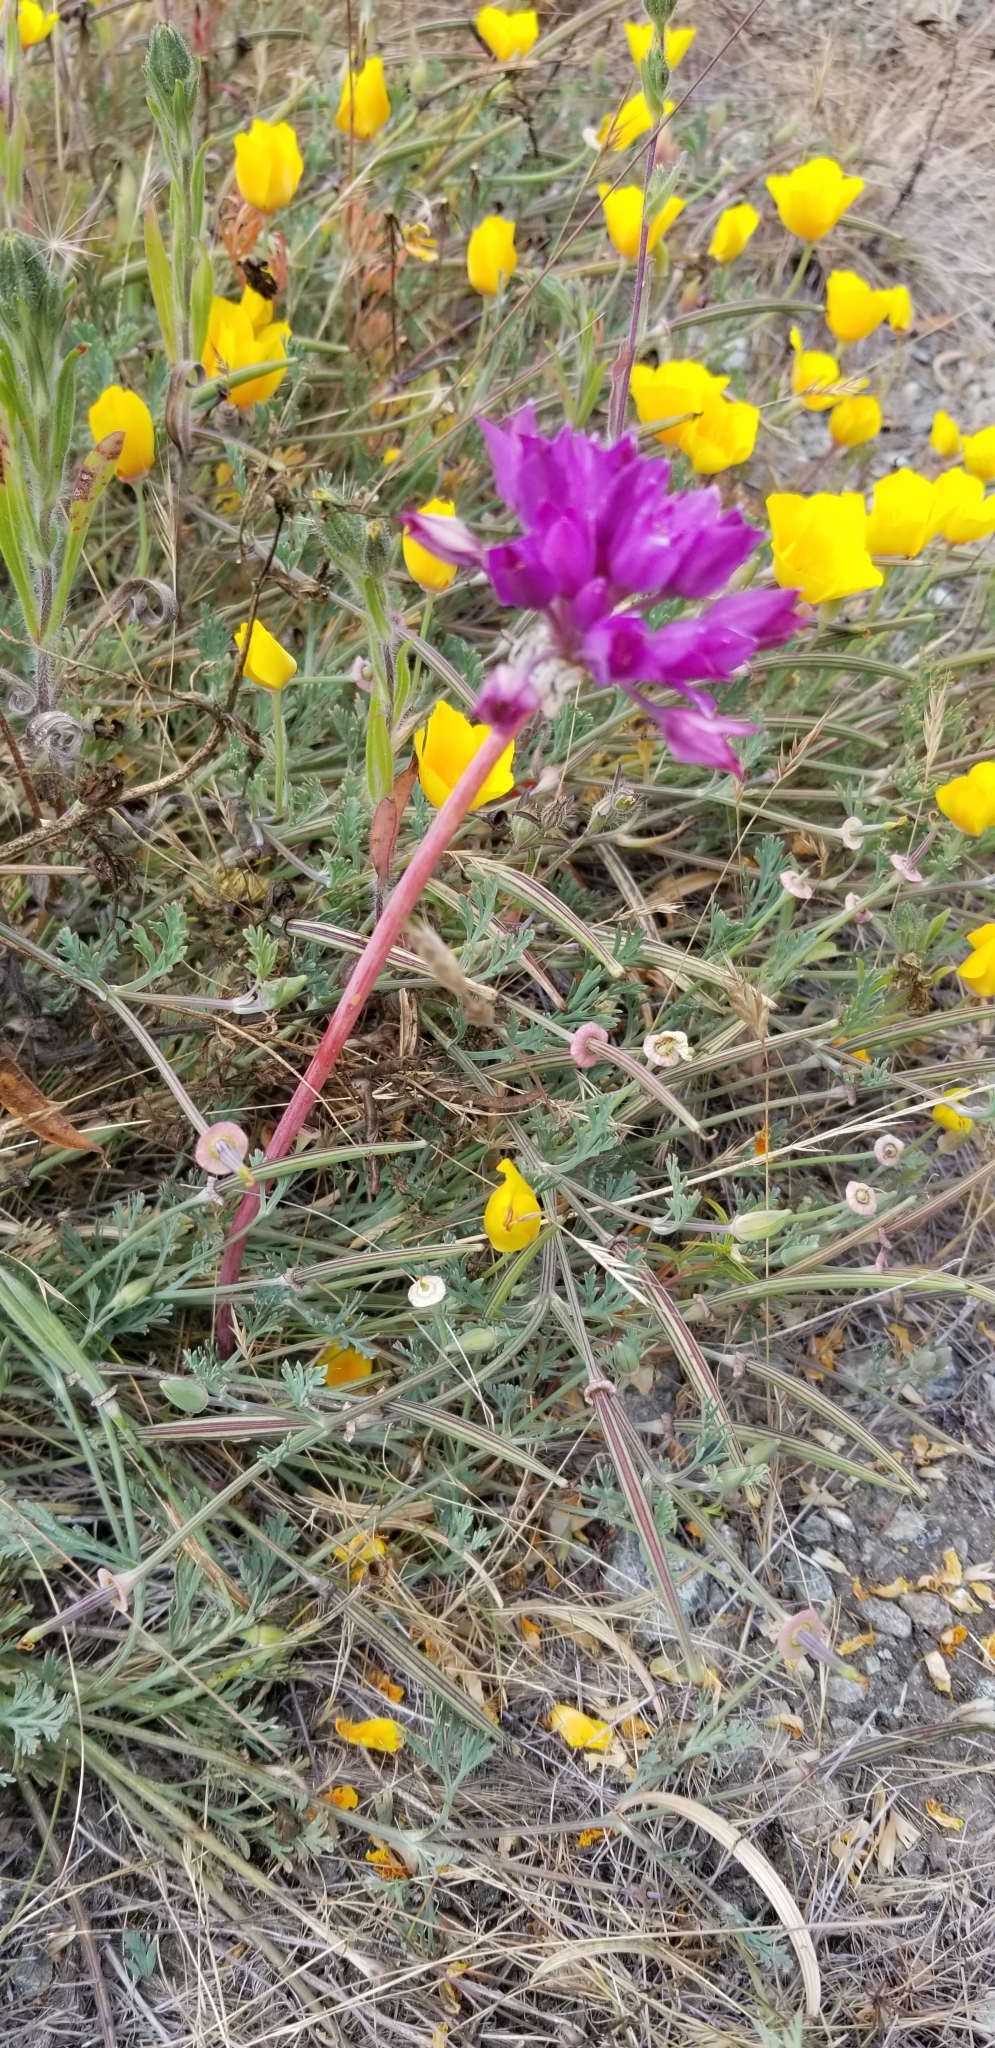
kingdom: Plantae
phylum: Tracheophyta
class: Liliopsida
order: Asparagales
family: Amaryllidaceae
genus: Allium
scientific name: Allium dichlamydeum
